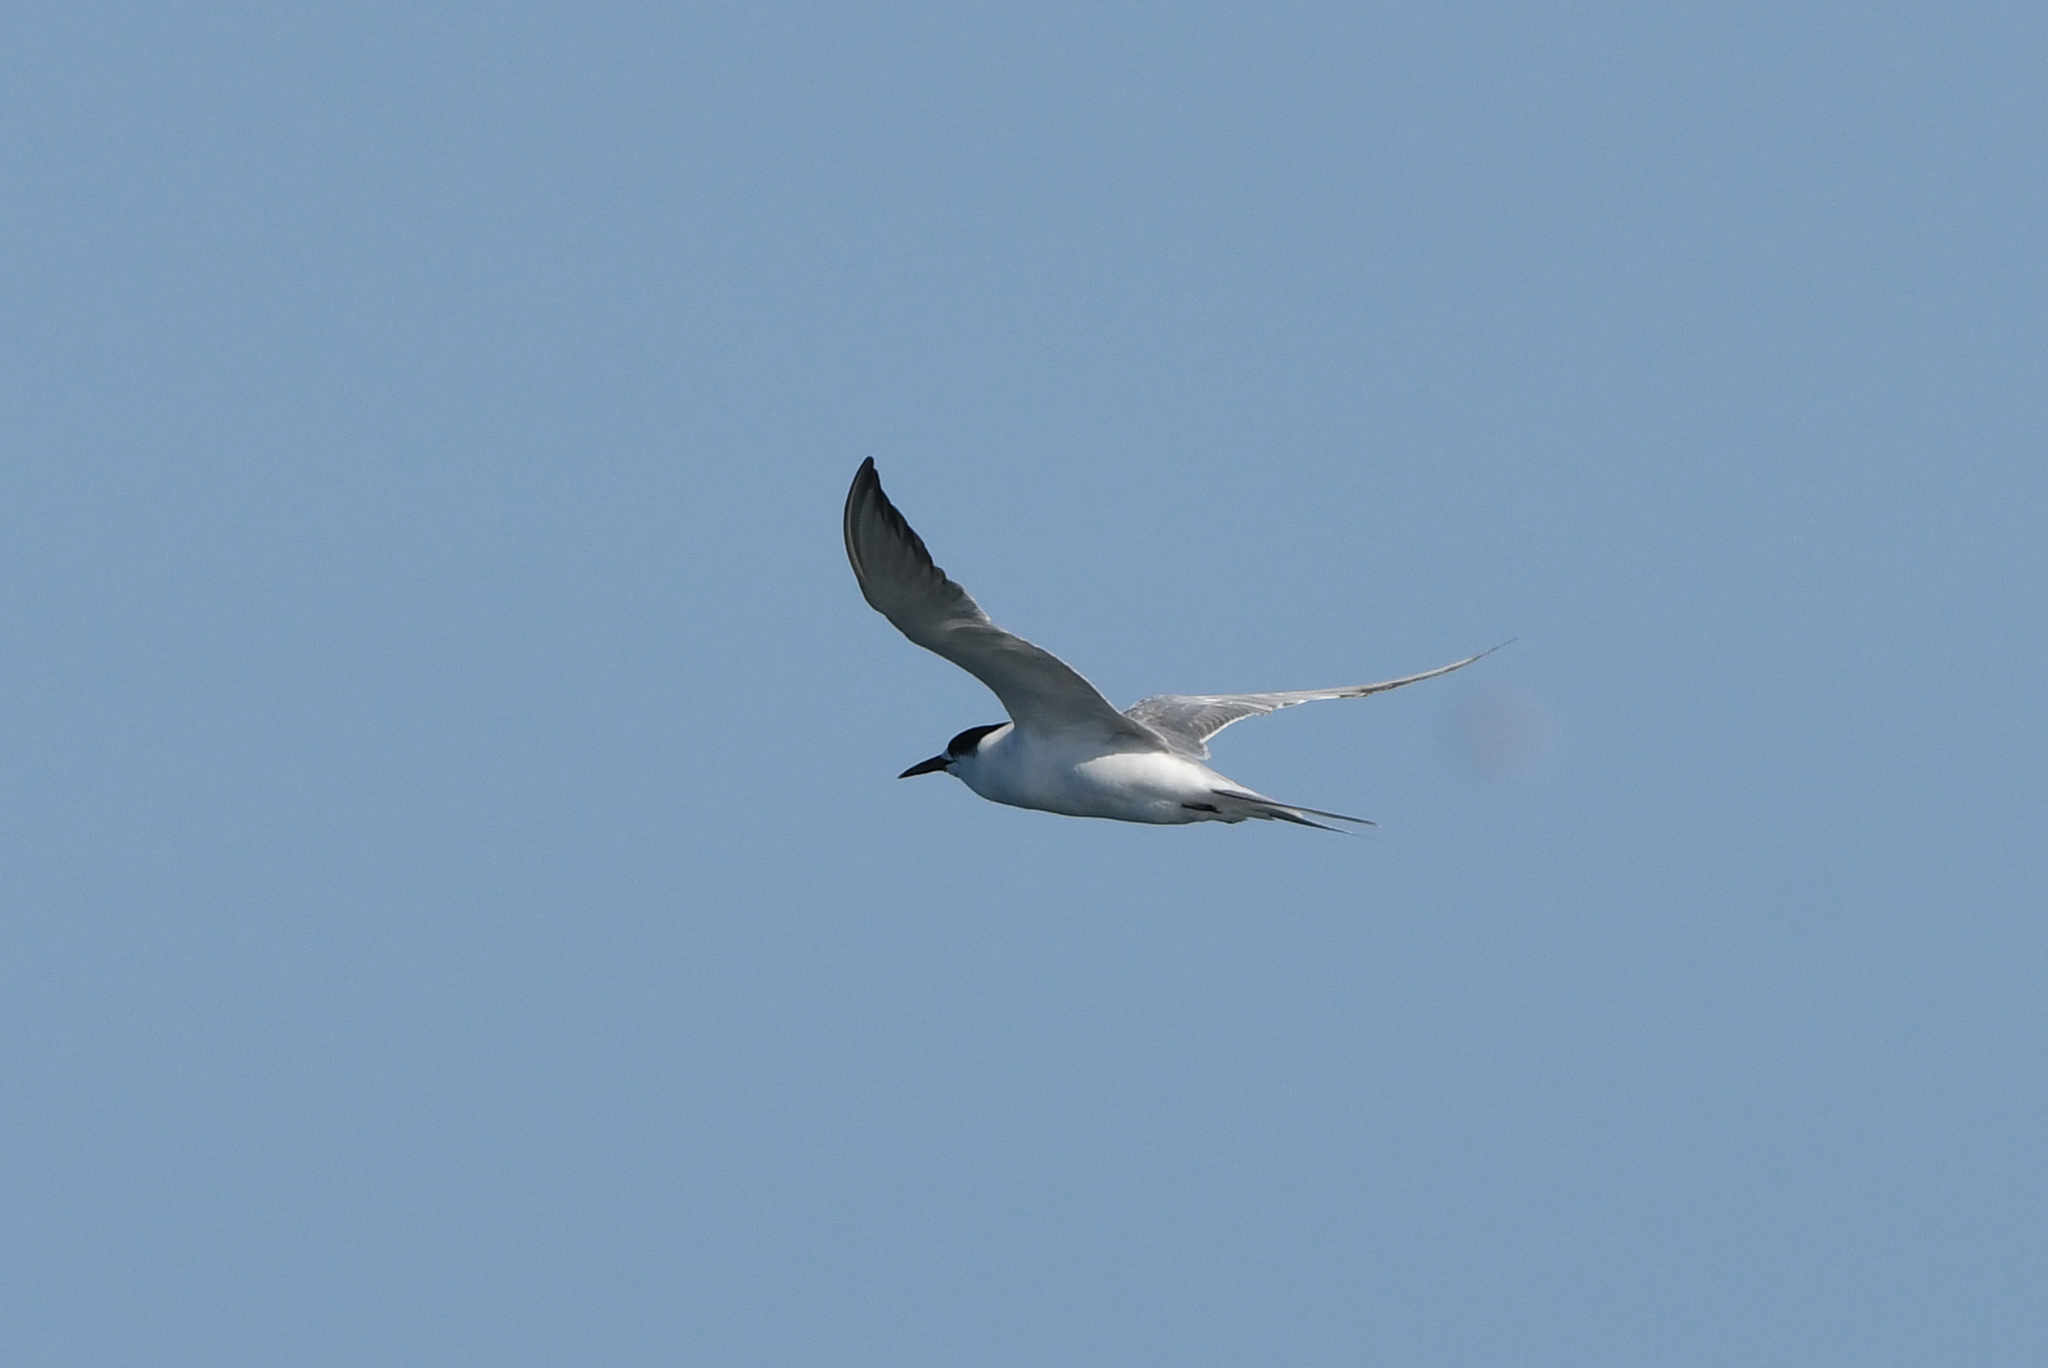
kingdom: Animalia
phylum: Chordata
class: Aves
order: Charadriiformes
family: Laridae
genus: Sterna
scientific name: Sterna hirundo
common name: Common tern
